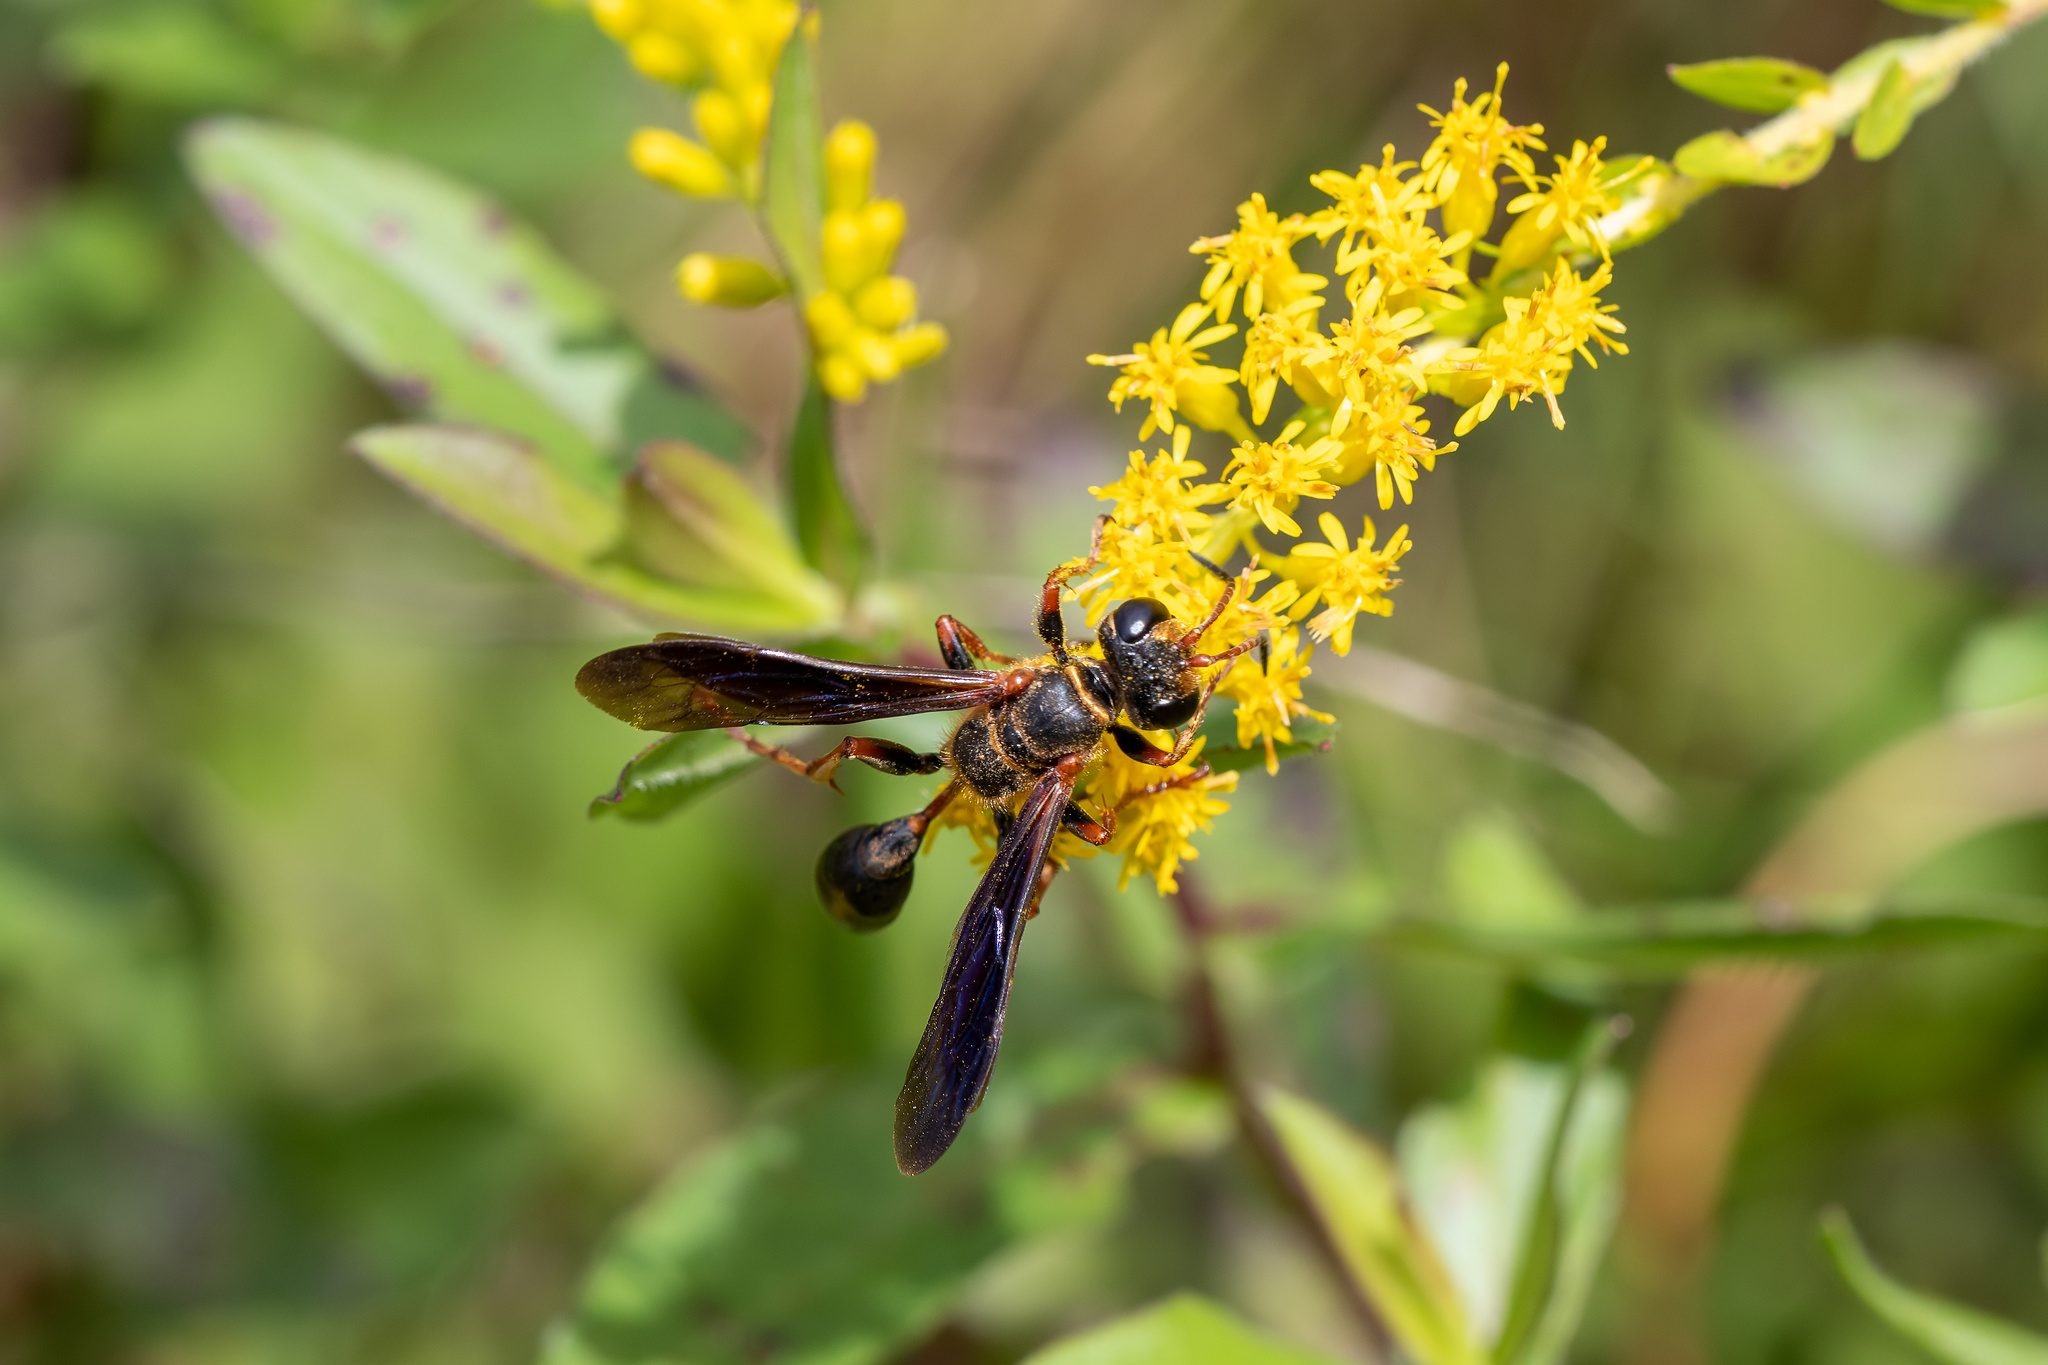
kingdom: Animalia
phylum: Arthropoda
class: Insecta
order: Hymenoptera
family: Sphecidae
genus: Isodontia
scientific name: Isodontia exornata
